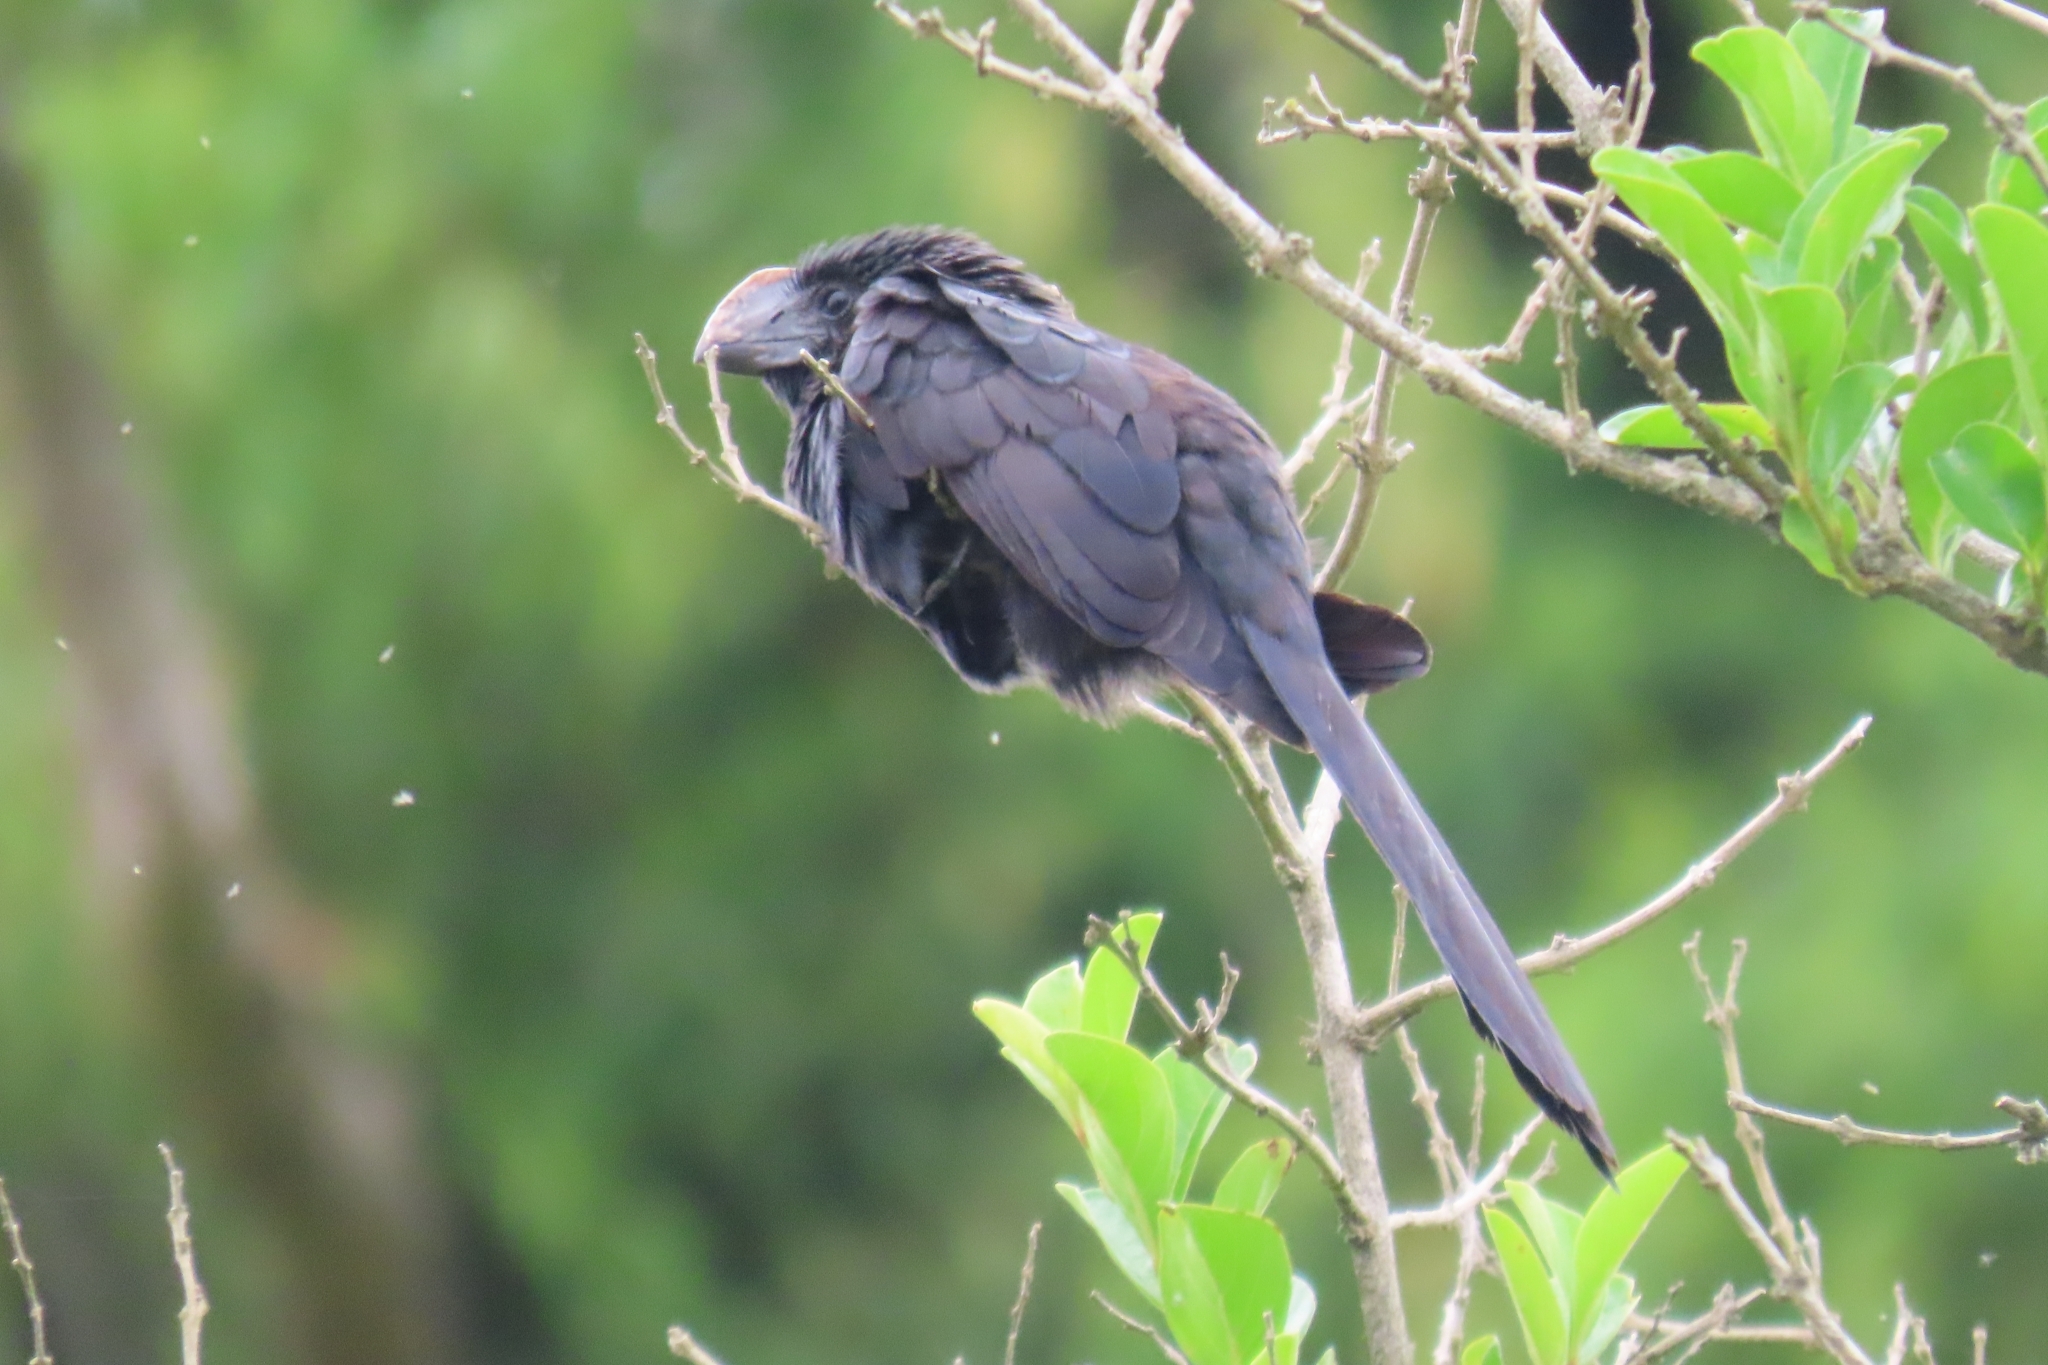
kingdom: Animalia
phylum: Chordata
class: Aves
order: Cuculiformes
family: Cuculidae
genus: Crotophaga
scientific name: Crotophaga ani
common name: Smooth-billed ani
